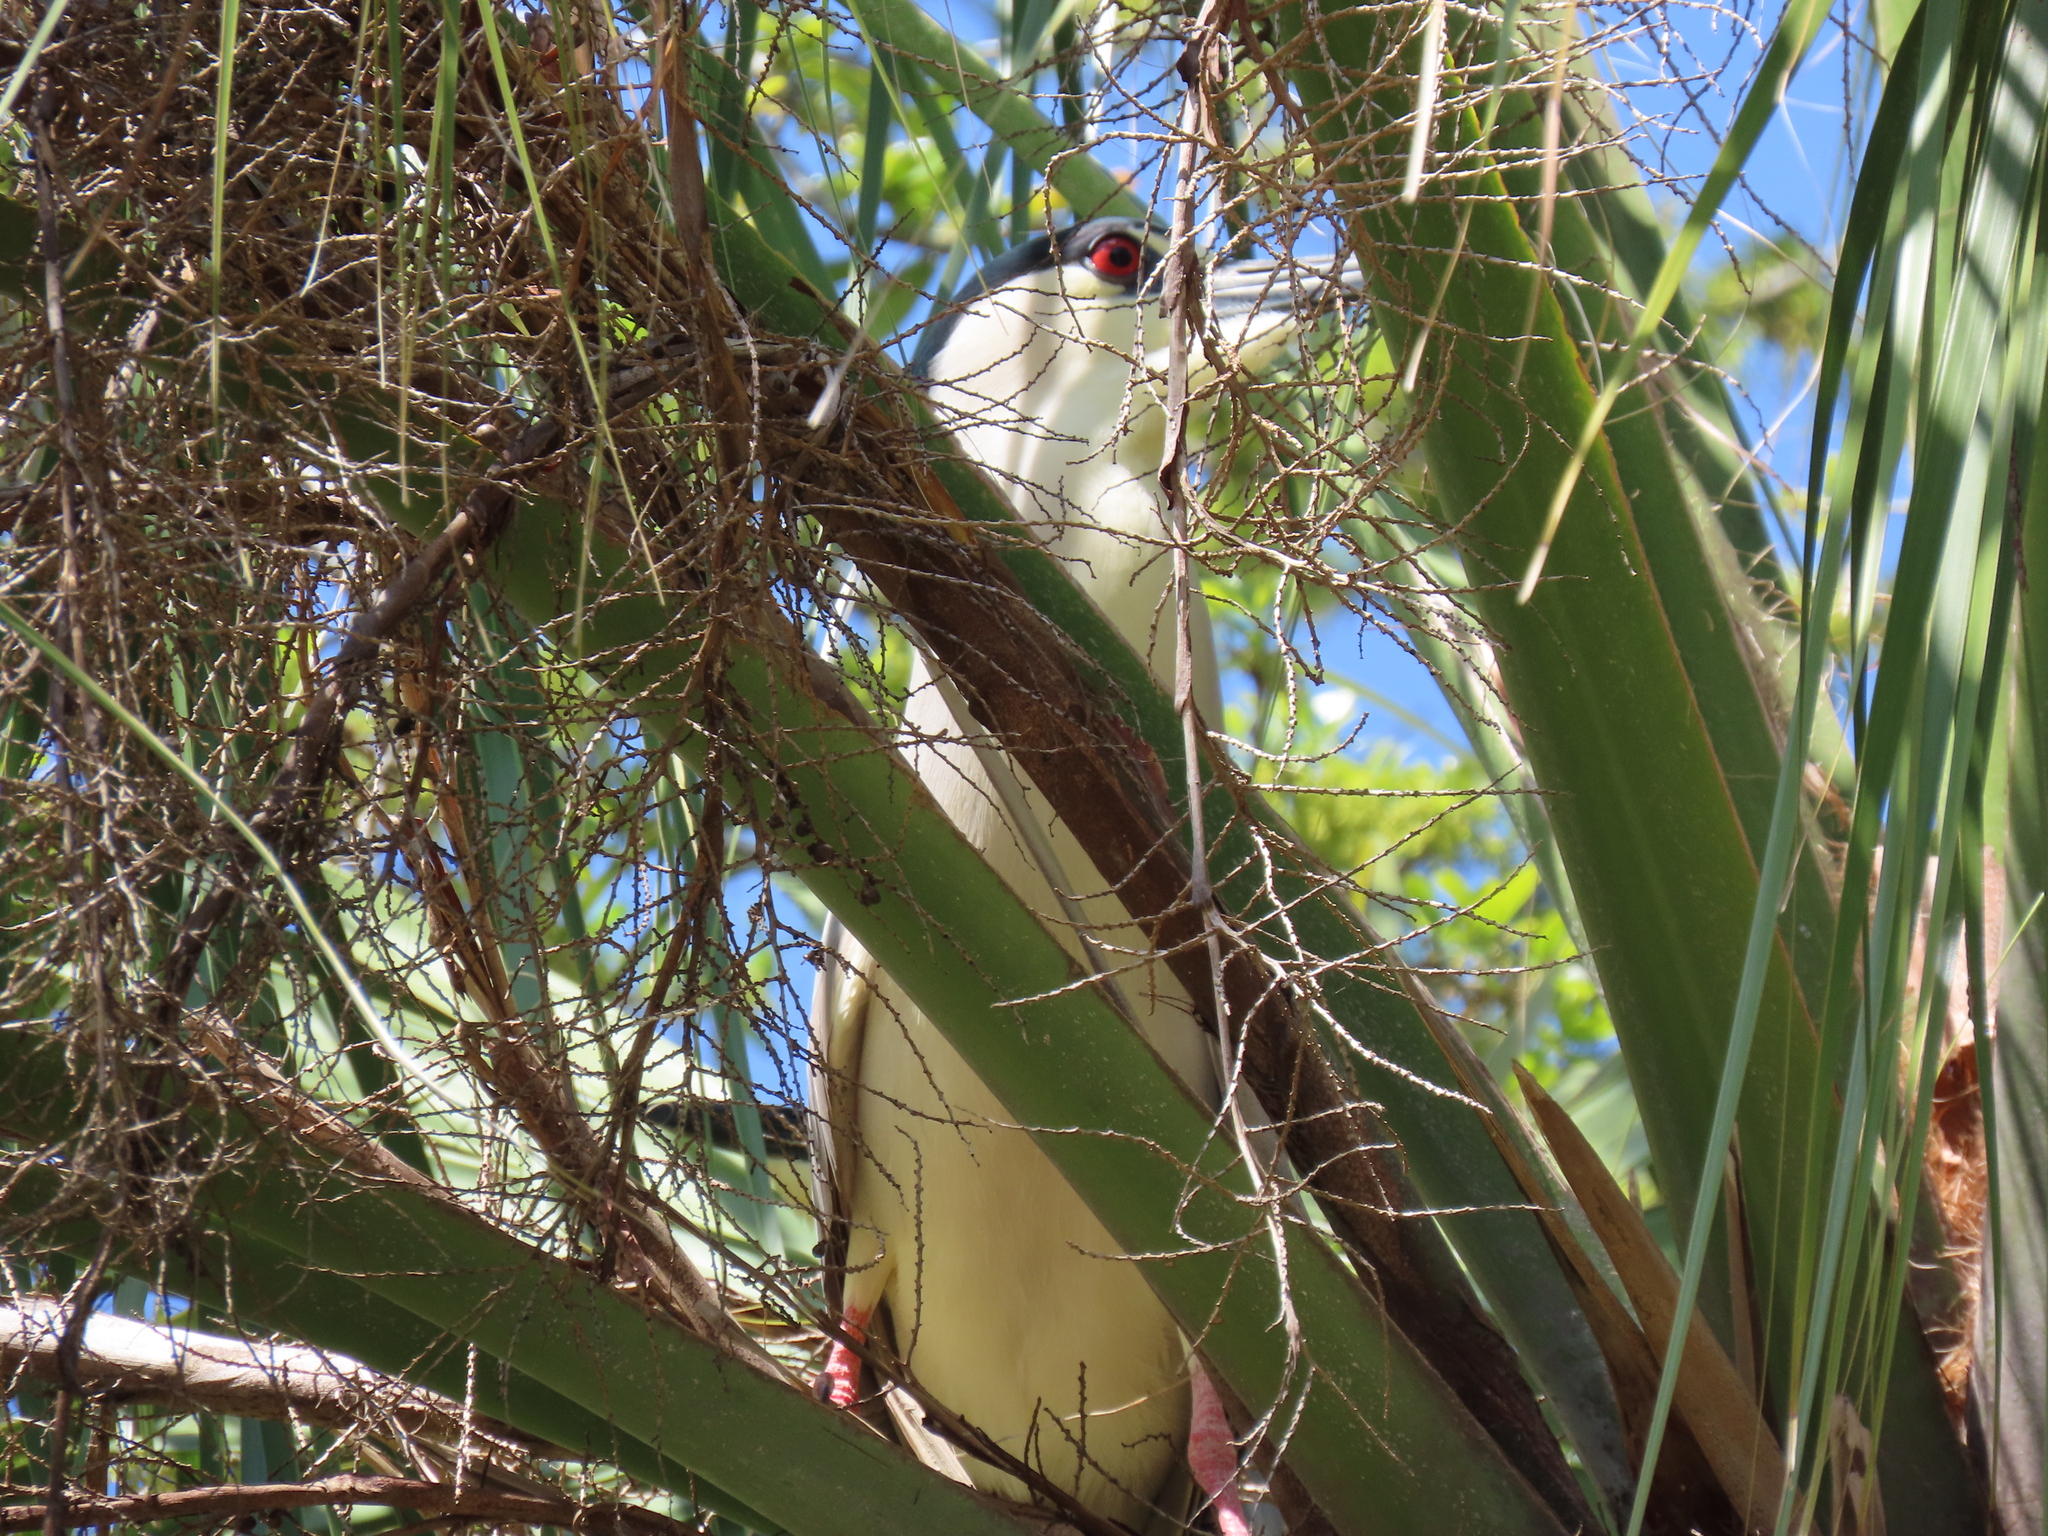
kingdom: Animalia
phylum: Chordata
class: Aves
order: Pelecaniformes
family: Ardeidae
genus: Nycticorax
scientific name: Nycticorax nycticorax
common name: Black-crowned night heron
